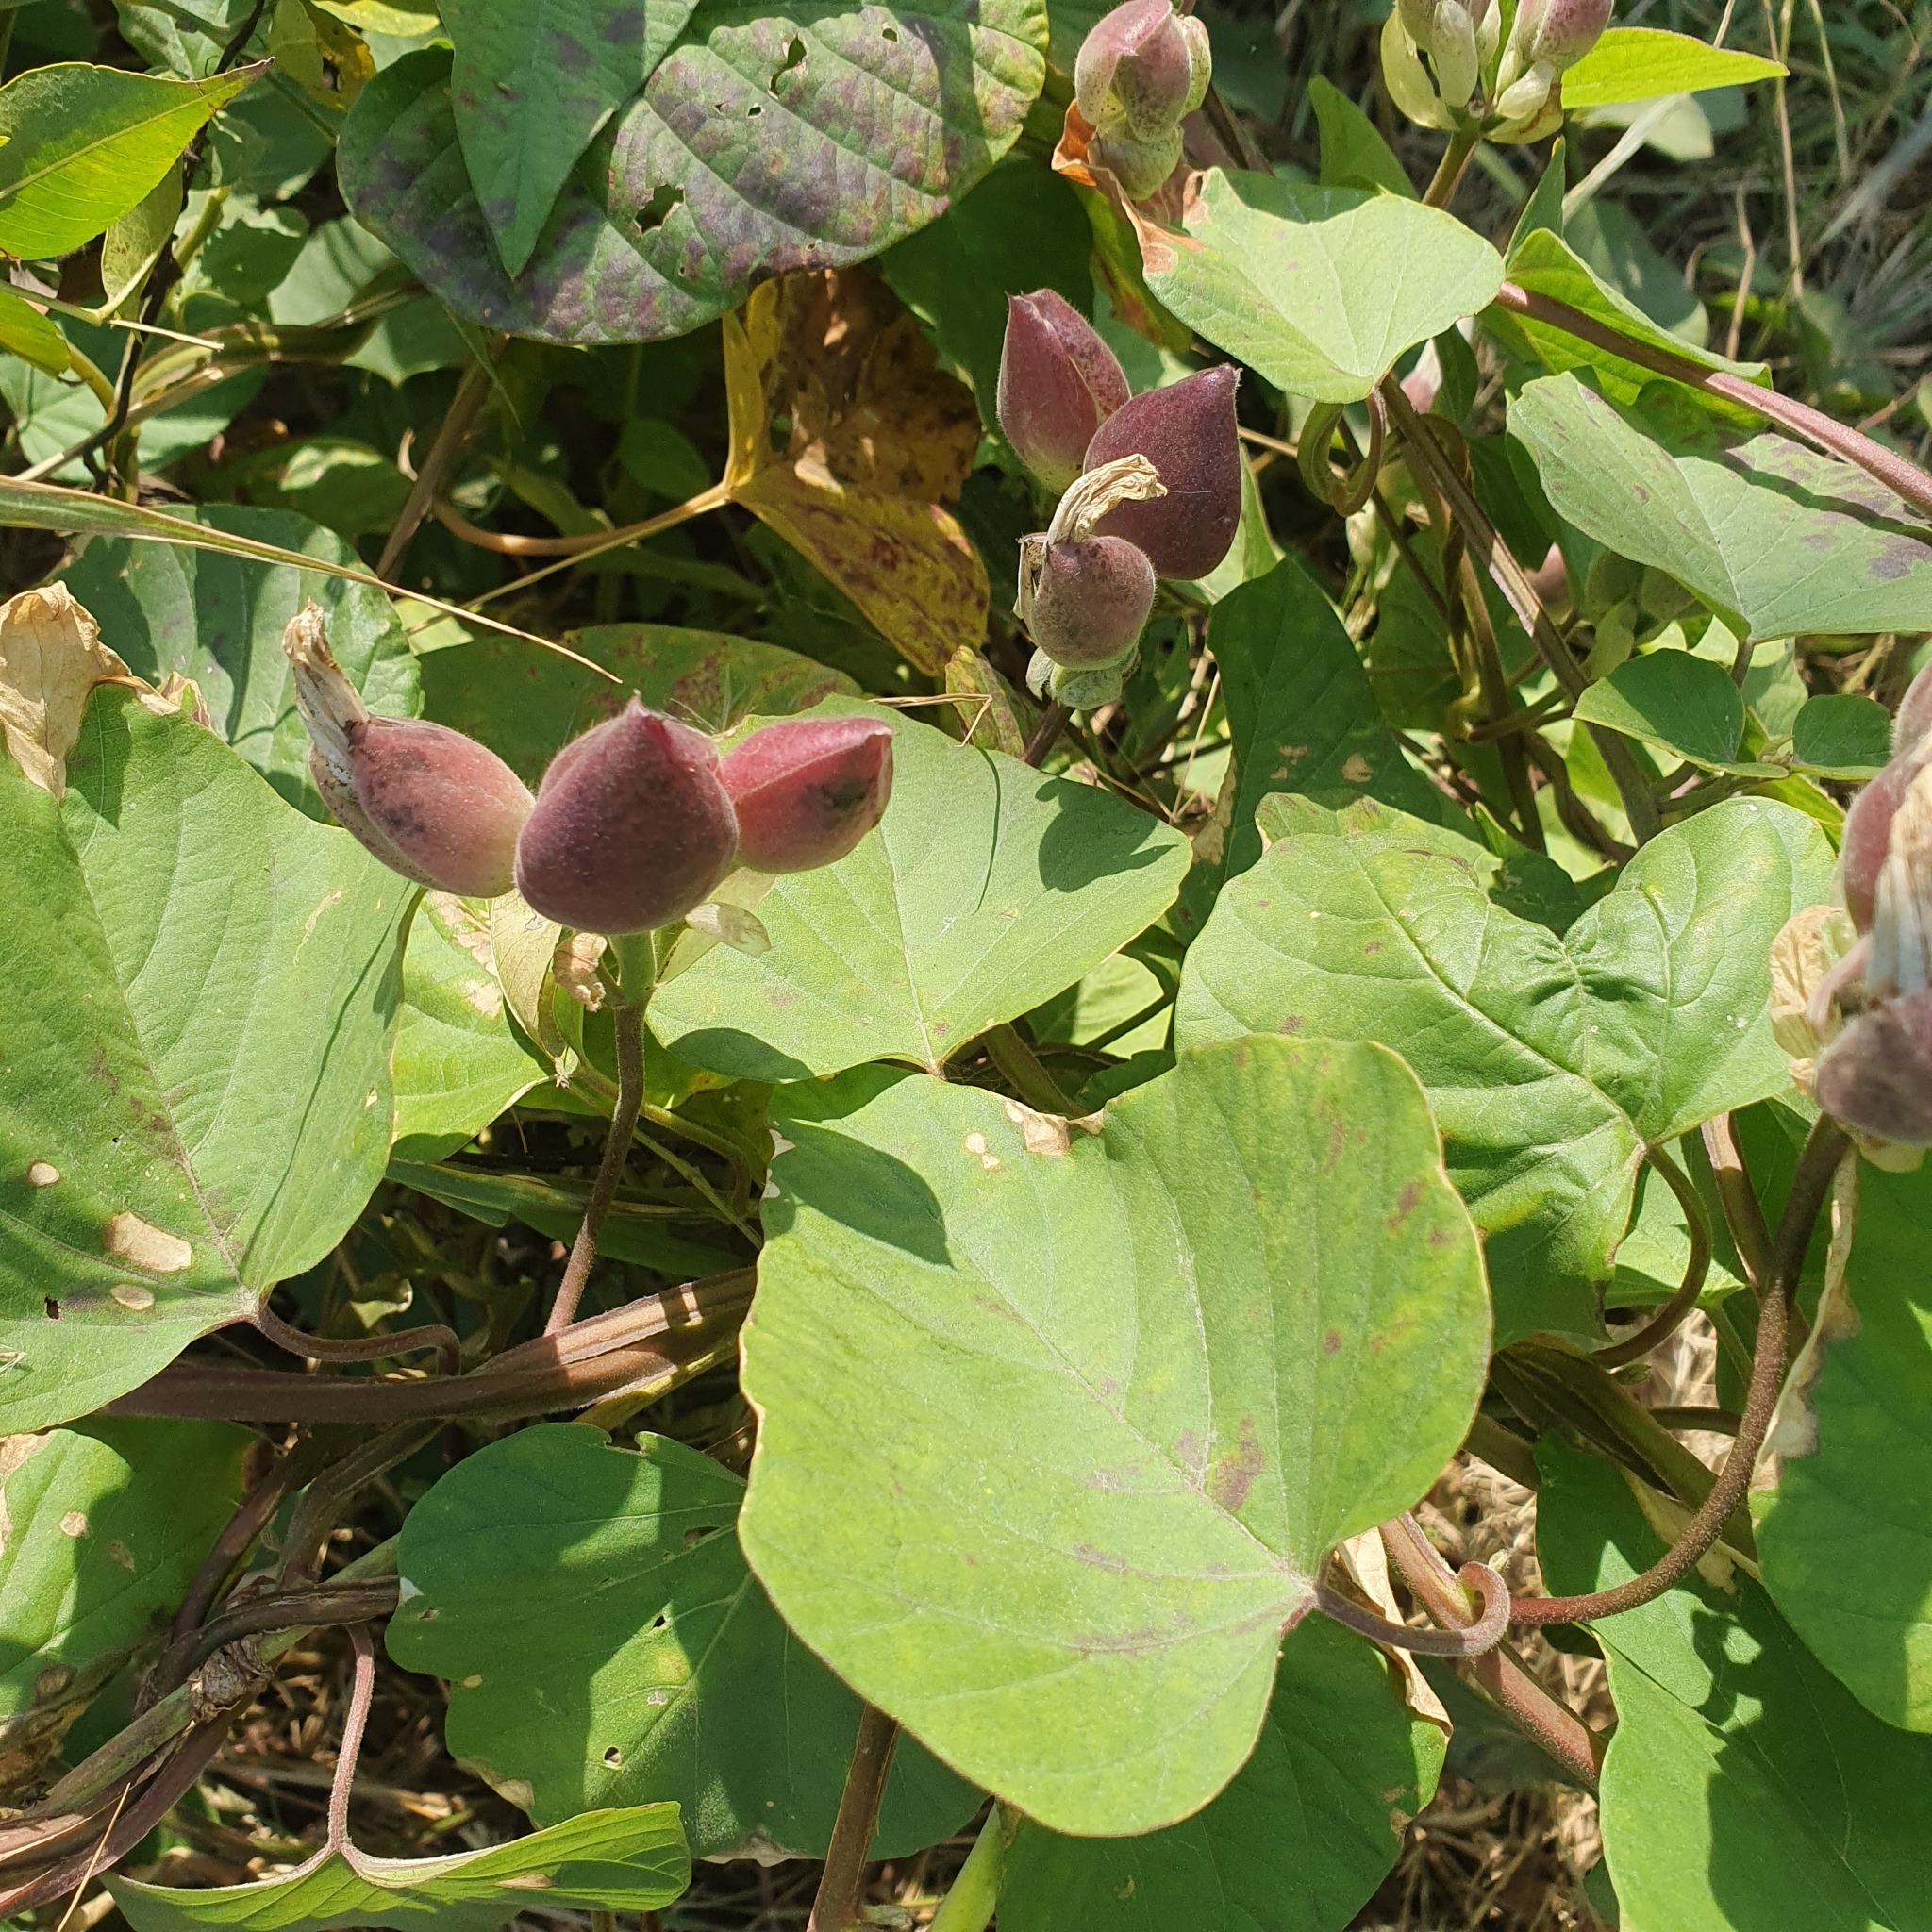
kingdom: Plantae
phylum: Tracheophyta
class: Magnoliopsida
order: Solanales
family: Convolvulaceae
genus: Operculina
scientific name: Operculina turpethum
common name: Transparent wood-rose
